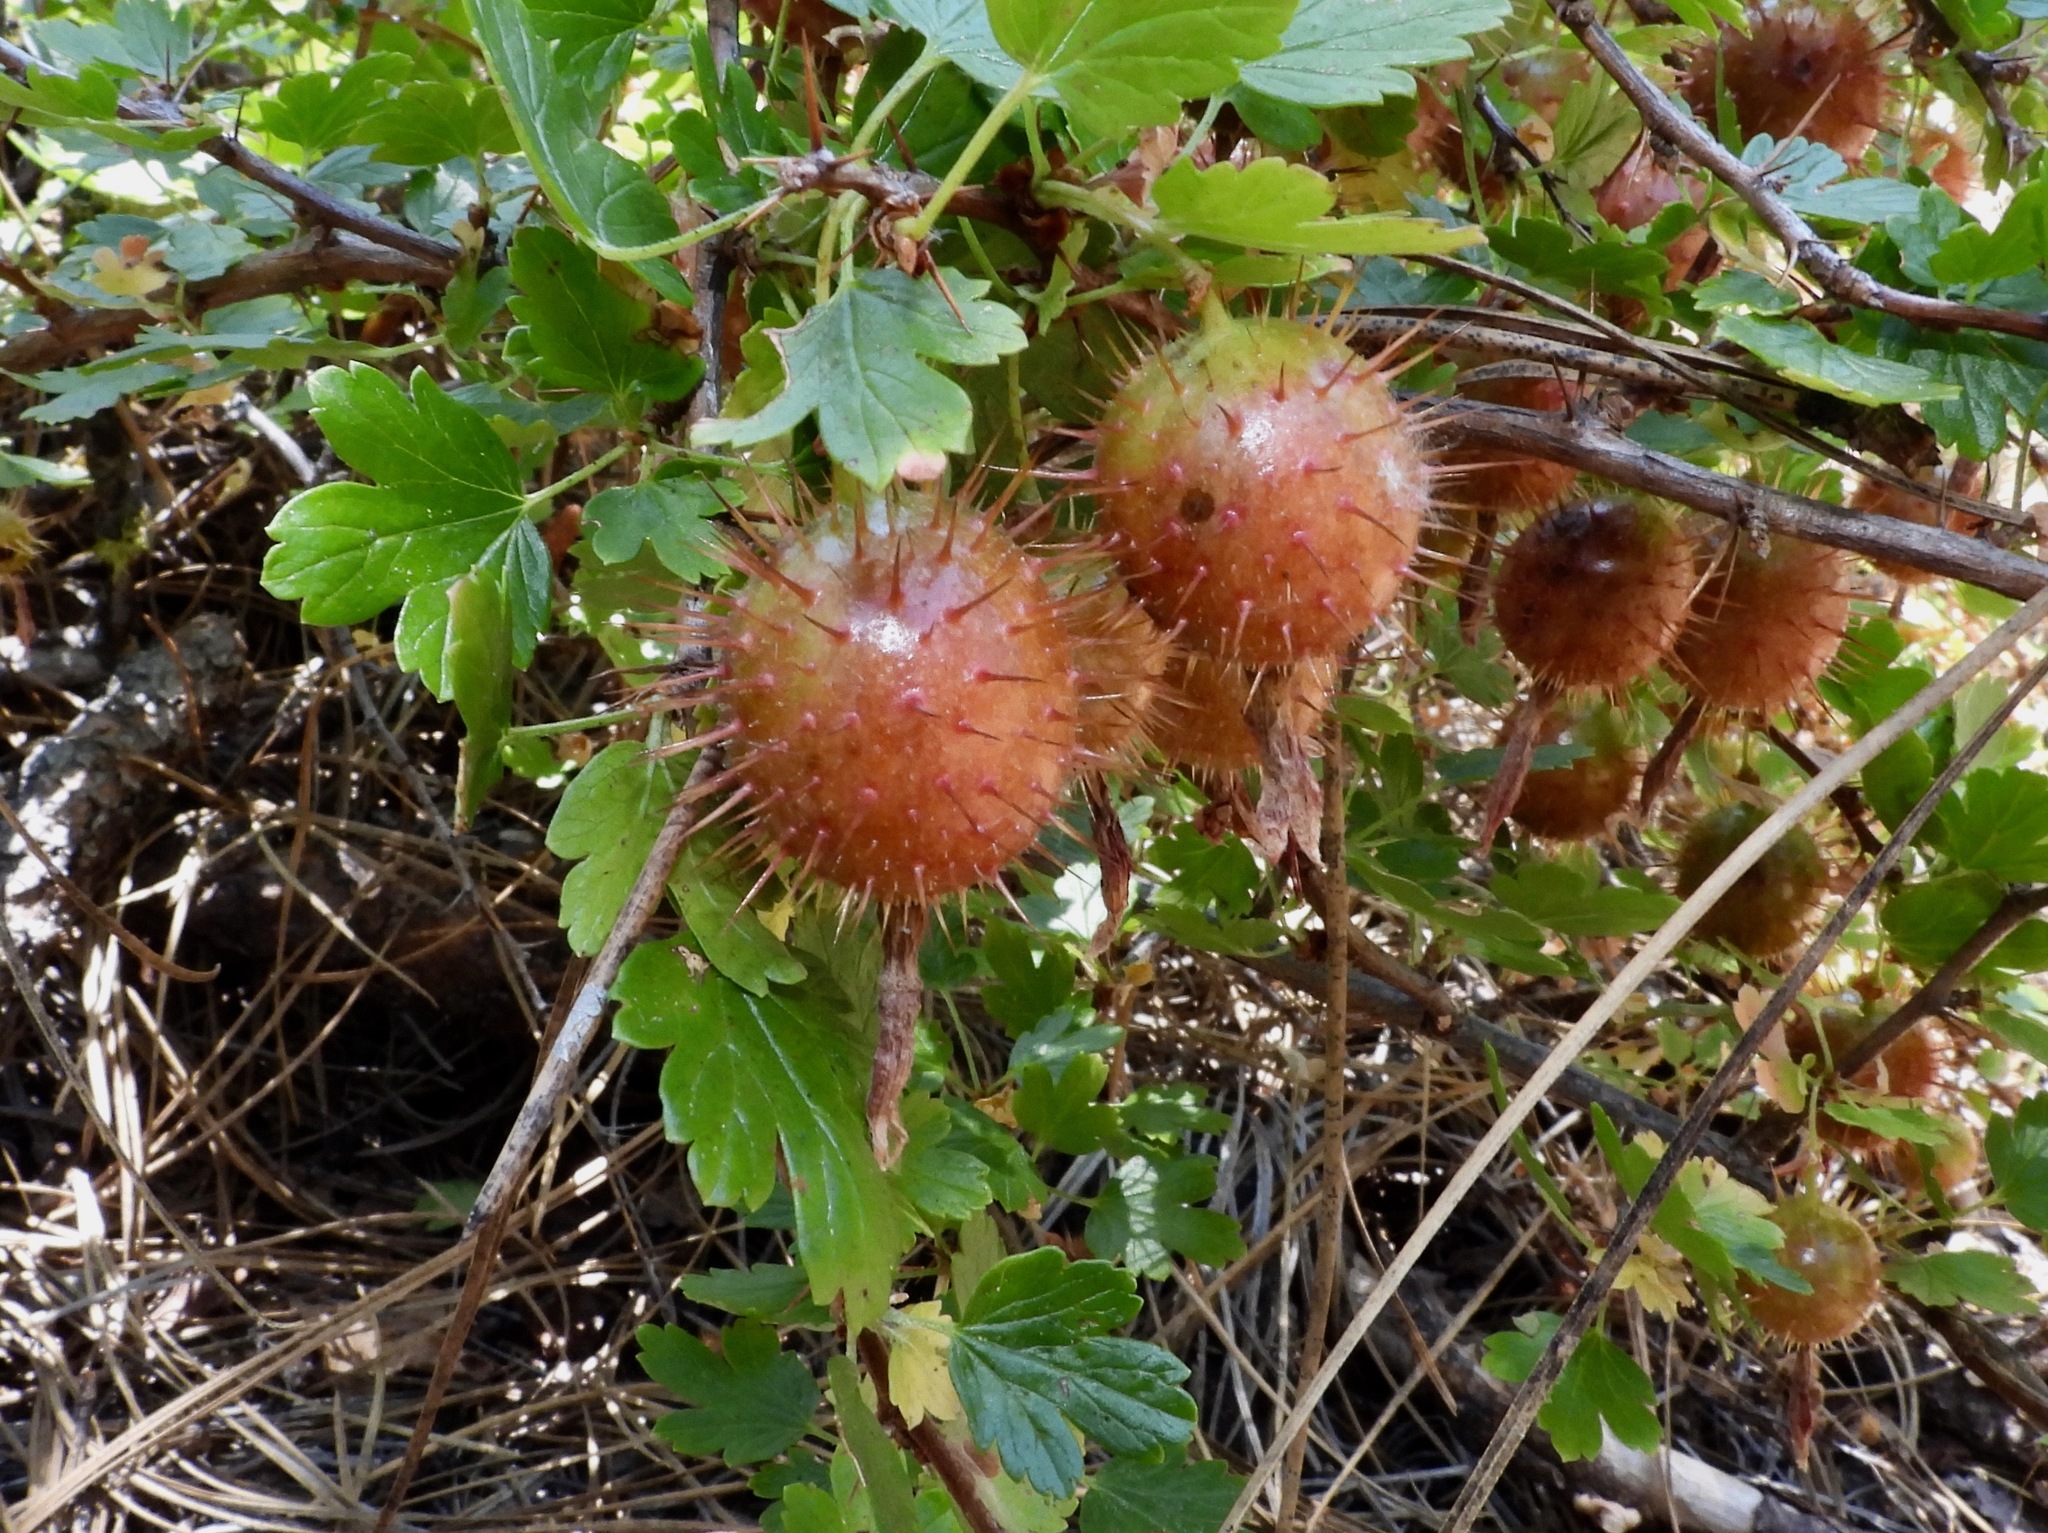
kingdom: Plantae
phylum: Tracheophyta
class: Magnoliopsida
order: Saxifragales
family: Grossulariaceae
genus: Ribes
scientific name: Ribes roezlii
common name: Sierra gooseberry
